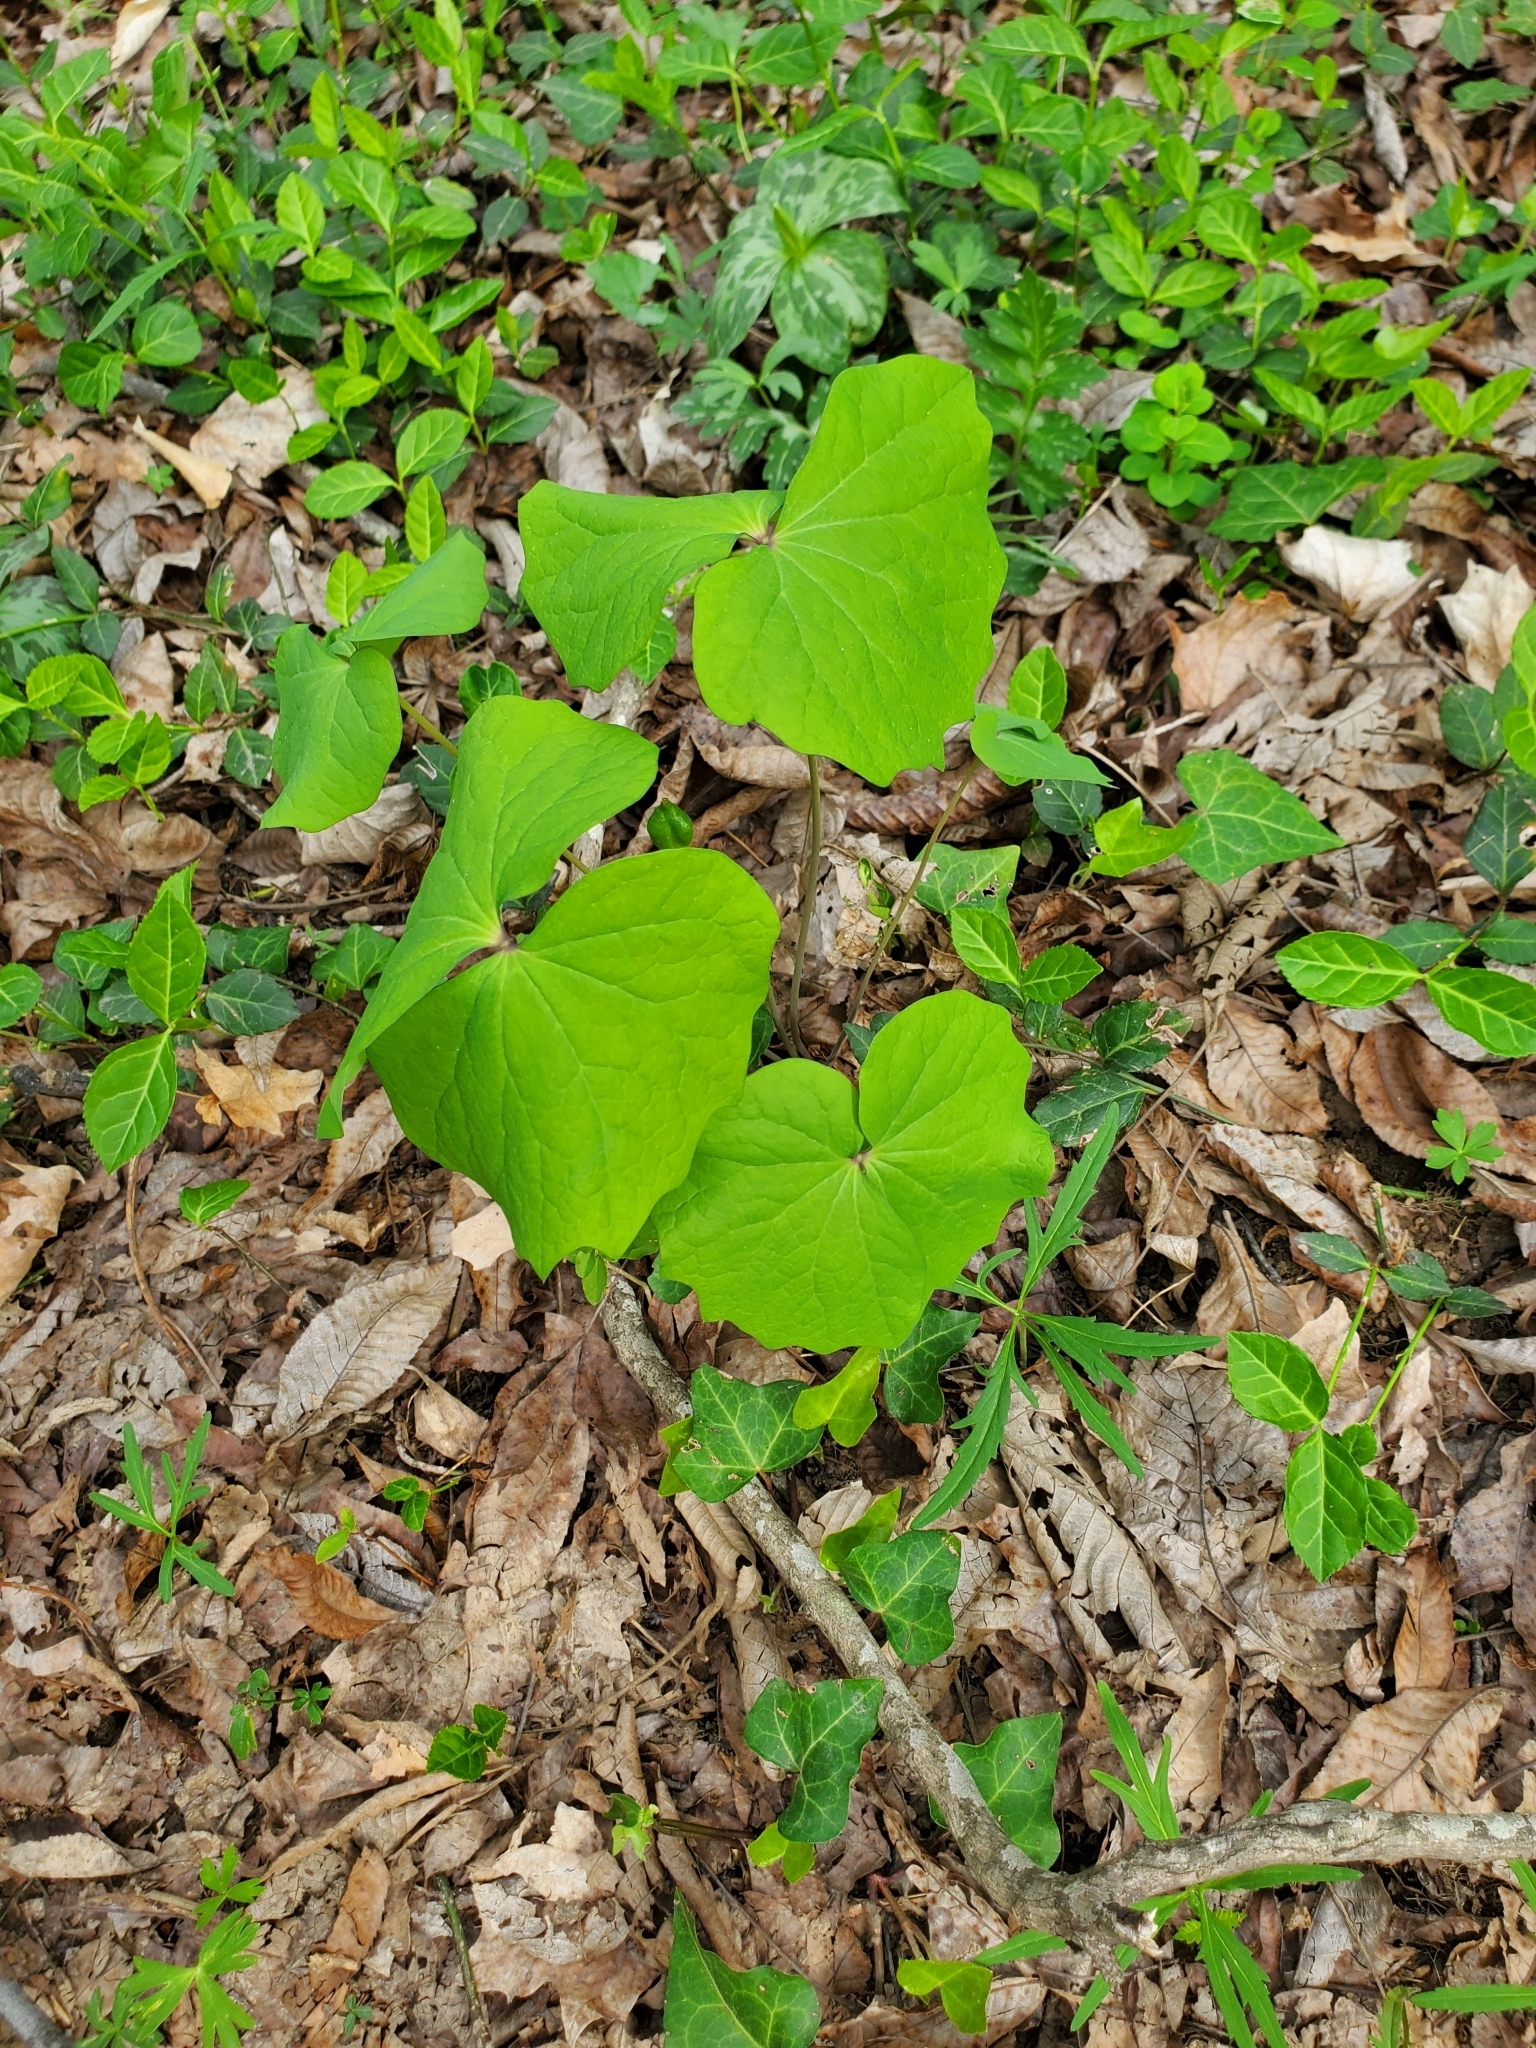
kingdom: Plantae
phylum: Tracheophyta
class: Magnoliopsida
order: Ranunculales
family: Berberidaceae
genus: Jeffersonia
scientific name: Jeffersonia diphylla
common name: Rheumatism-root
